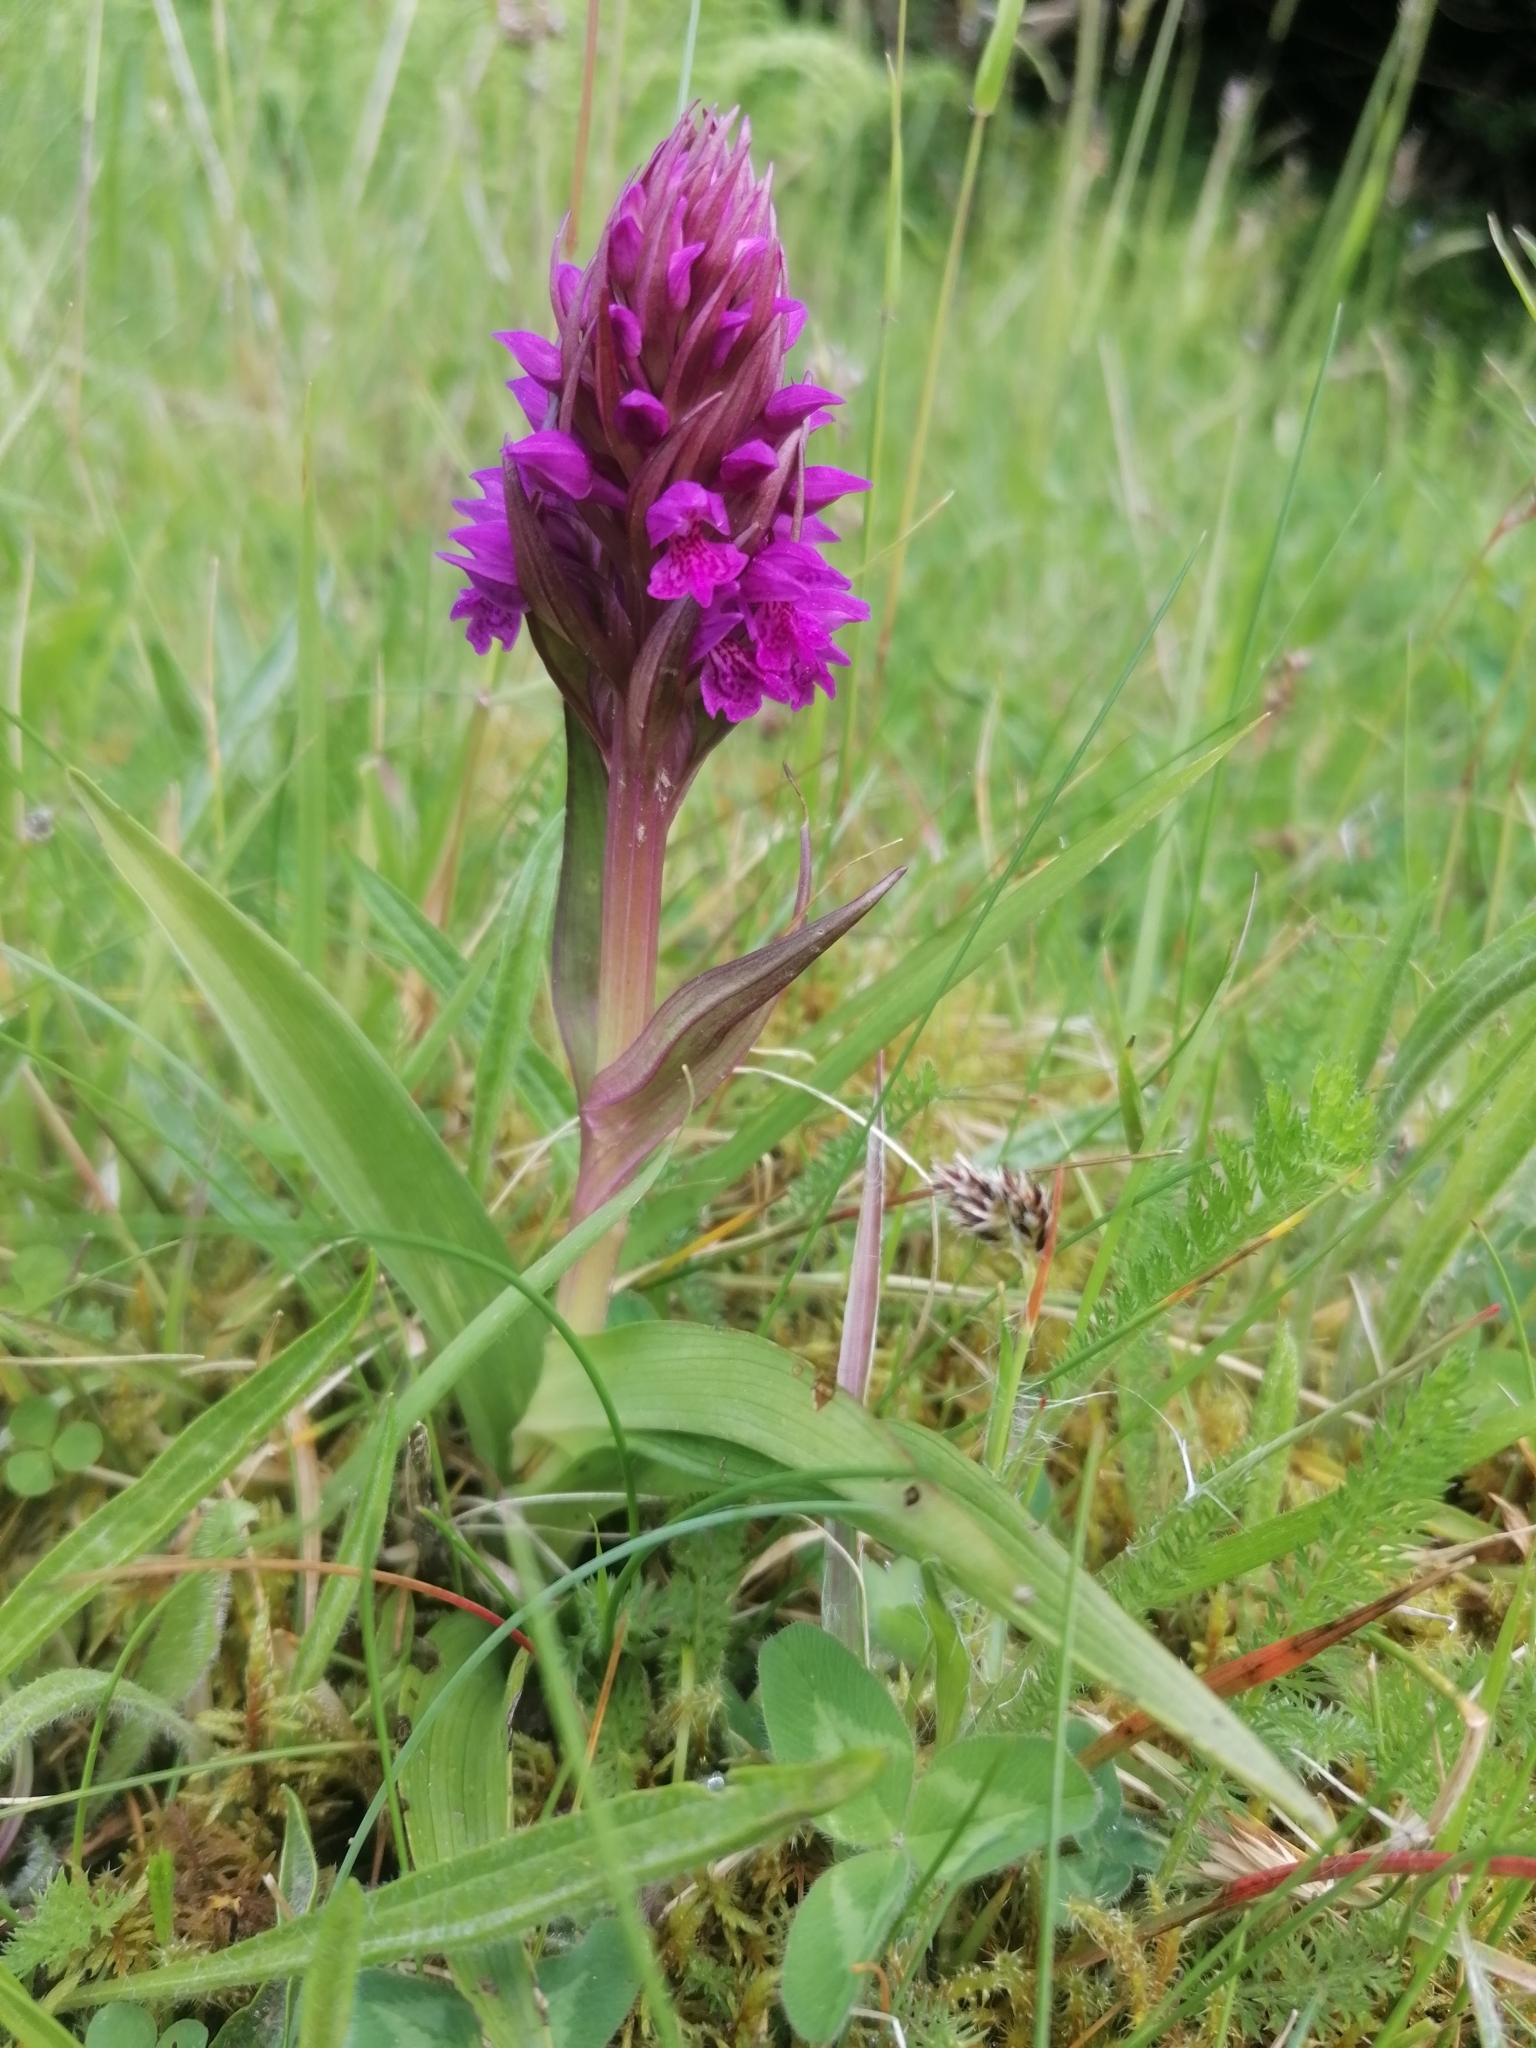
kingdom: Plantae
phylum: Tracheophyta
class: Liliopsida
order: Asparagales
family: Orchidaceae
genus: Dactylorhiza
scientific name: Dactylorhiza majalis
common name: Marsh orchid
